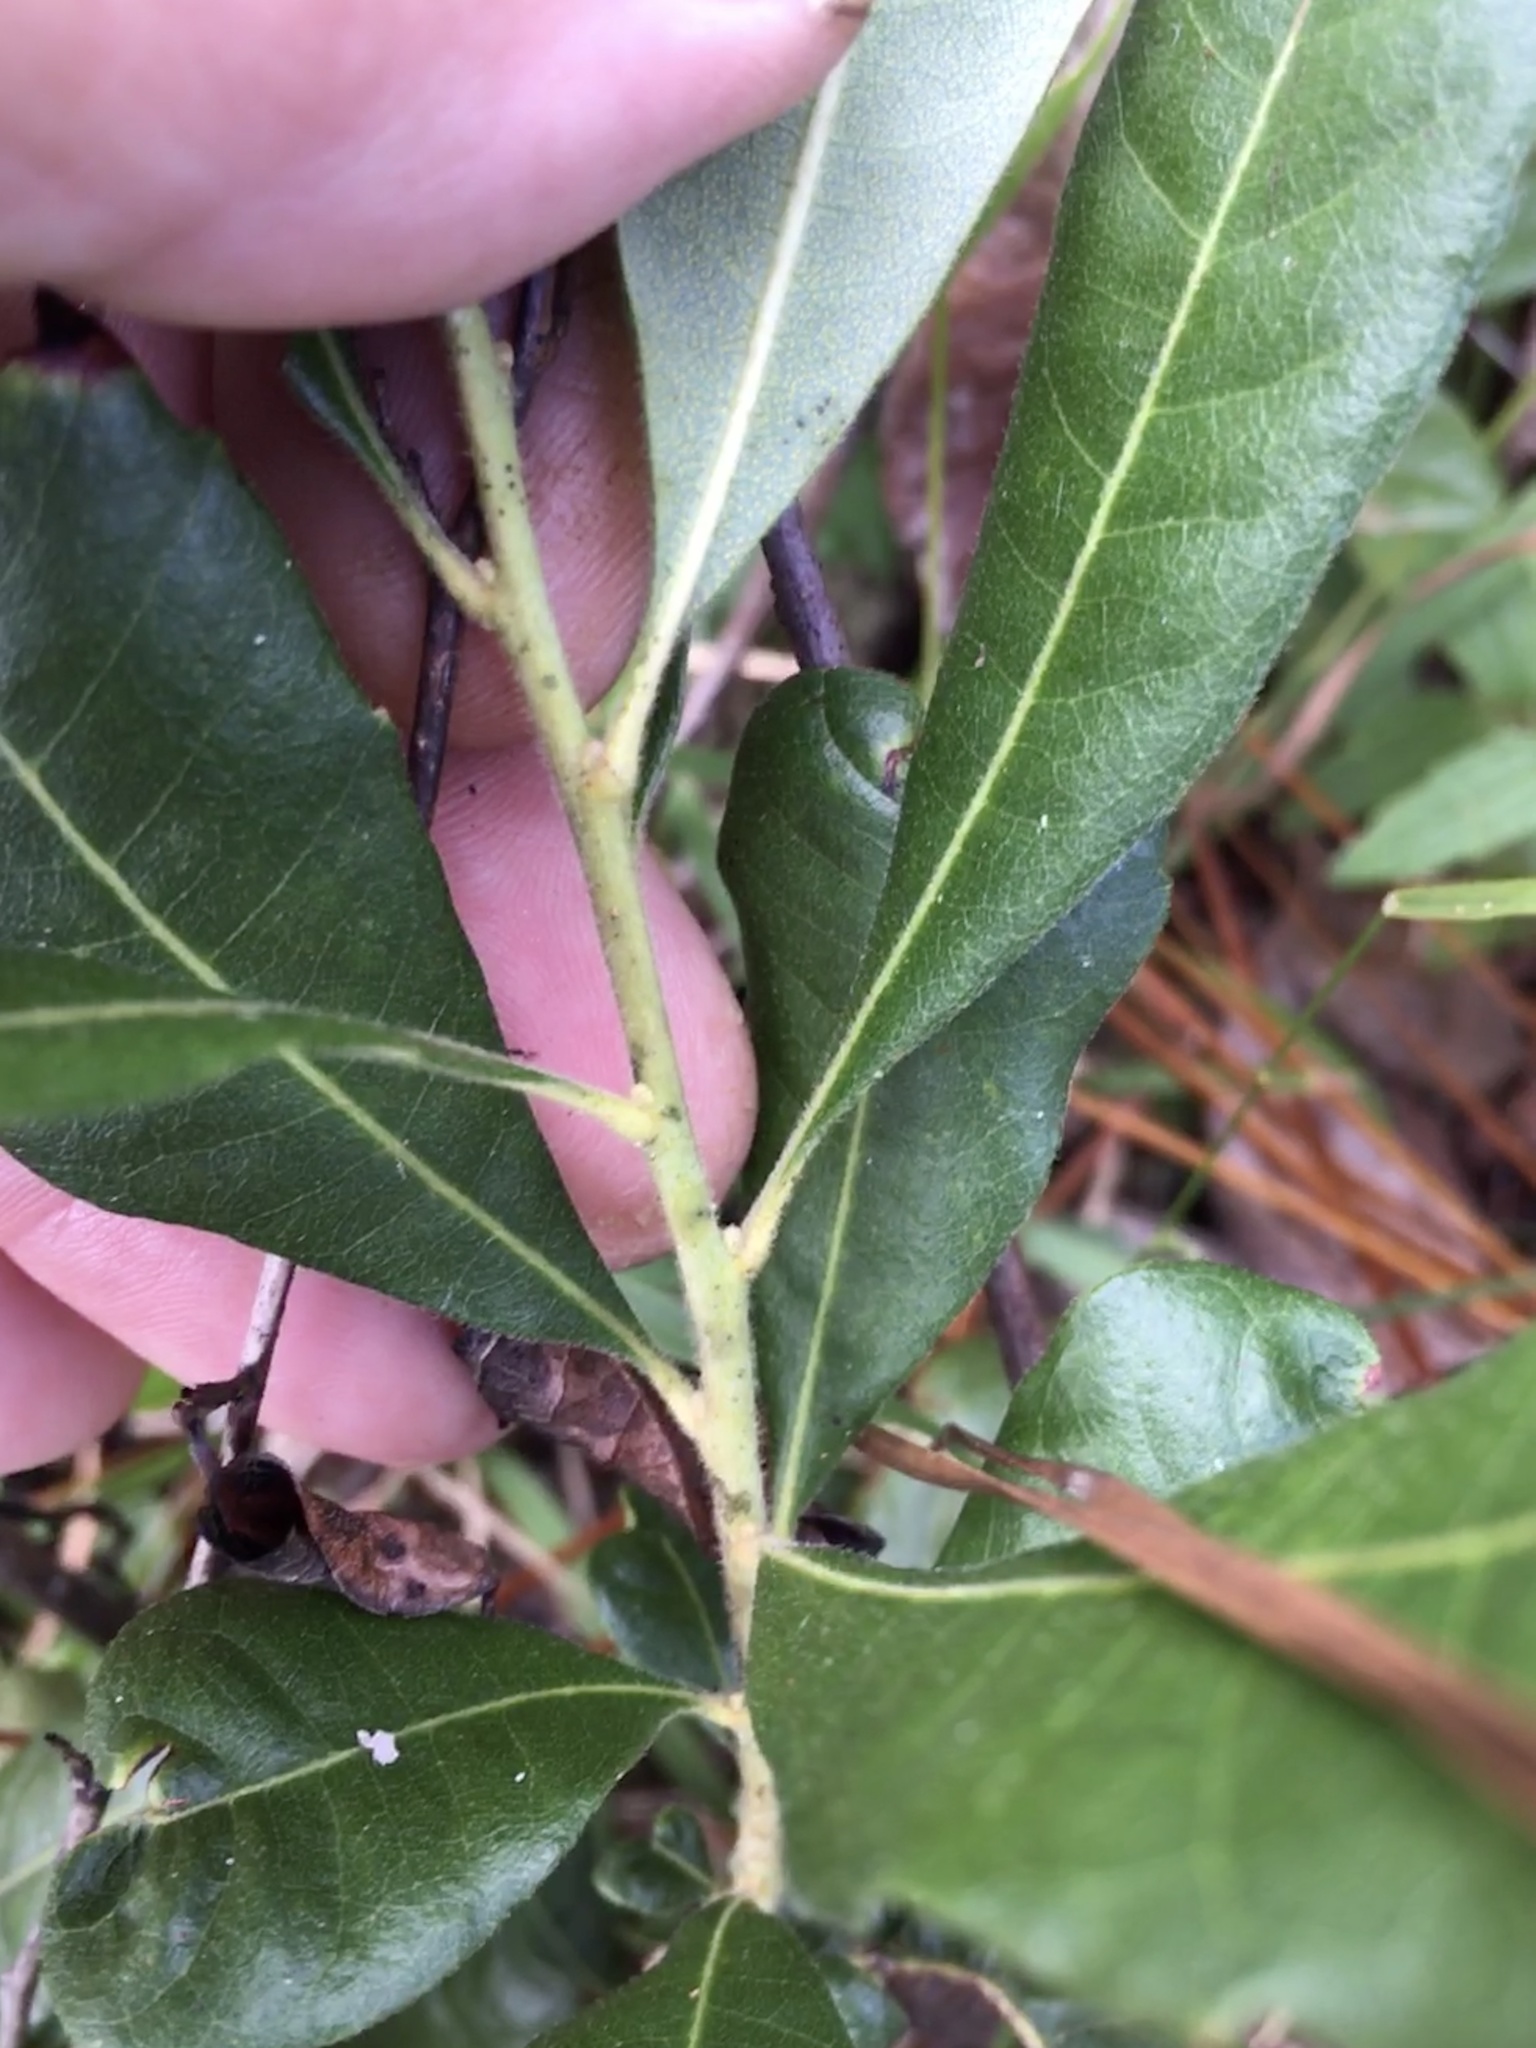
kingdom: Plantae
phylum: Tracheophyta
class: Magnoliopsida
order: Fagales
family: Myricaceae
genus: Morella
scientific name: Morella caroliniensis
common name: Evergreen bayberry
